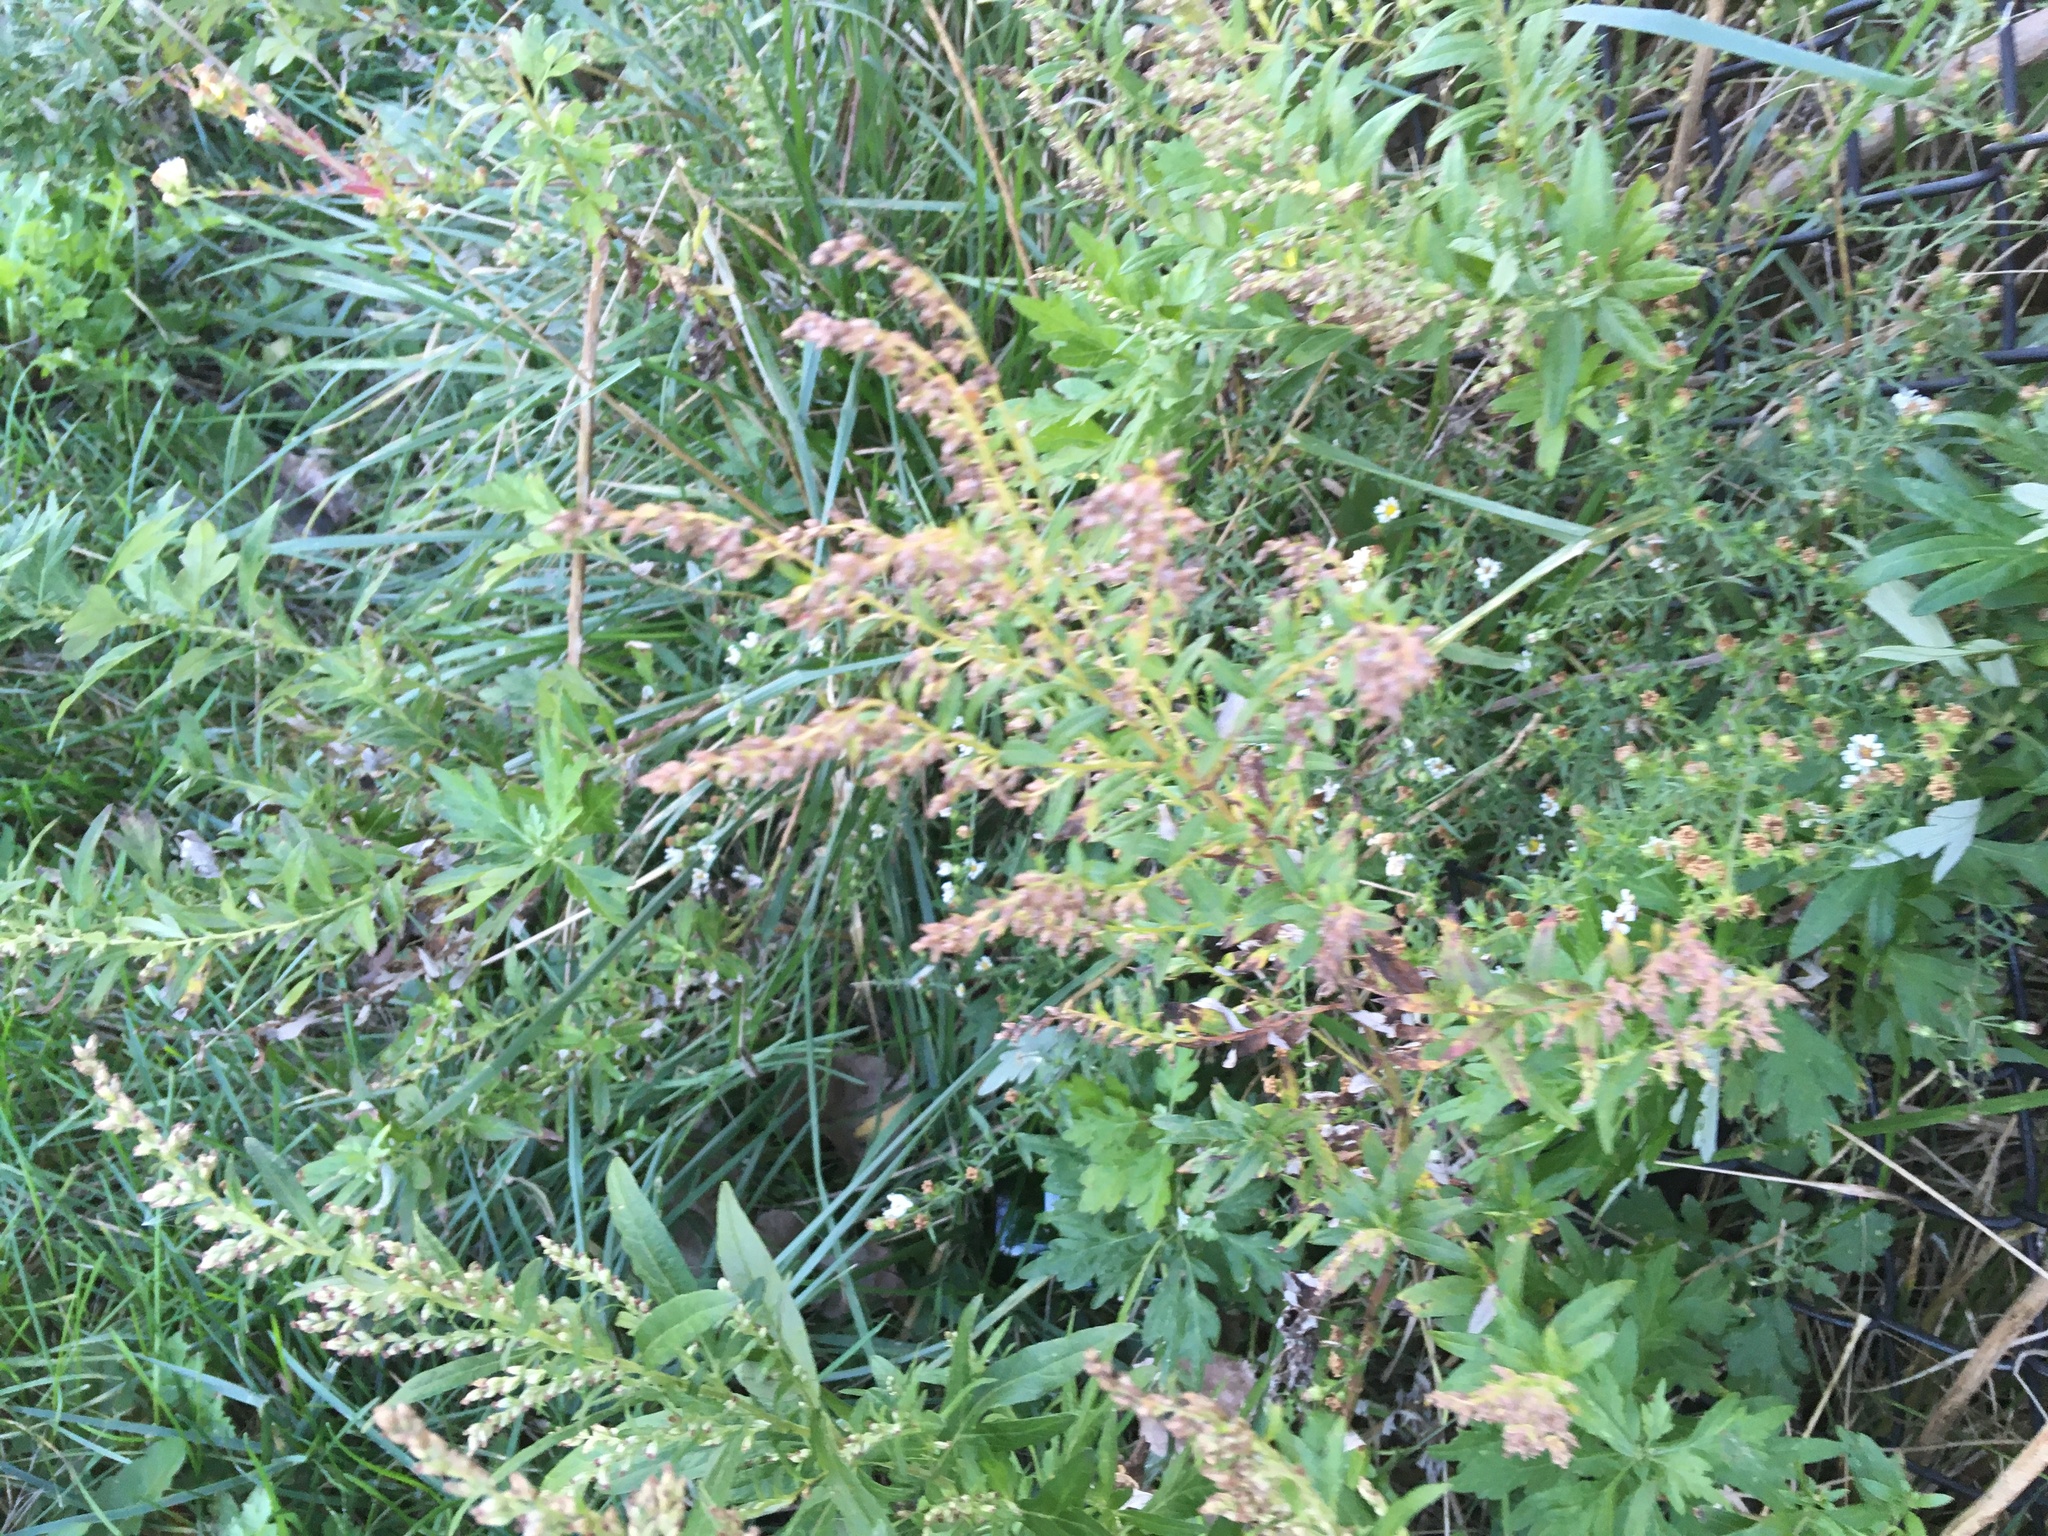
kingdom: Plantae
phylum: Tracheophyta
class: Magnoliopsida
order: Asterales
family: Asteraceae
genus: Artemisia
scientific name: Artemisia vulgaris
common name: Mugwort
